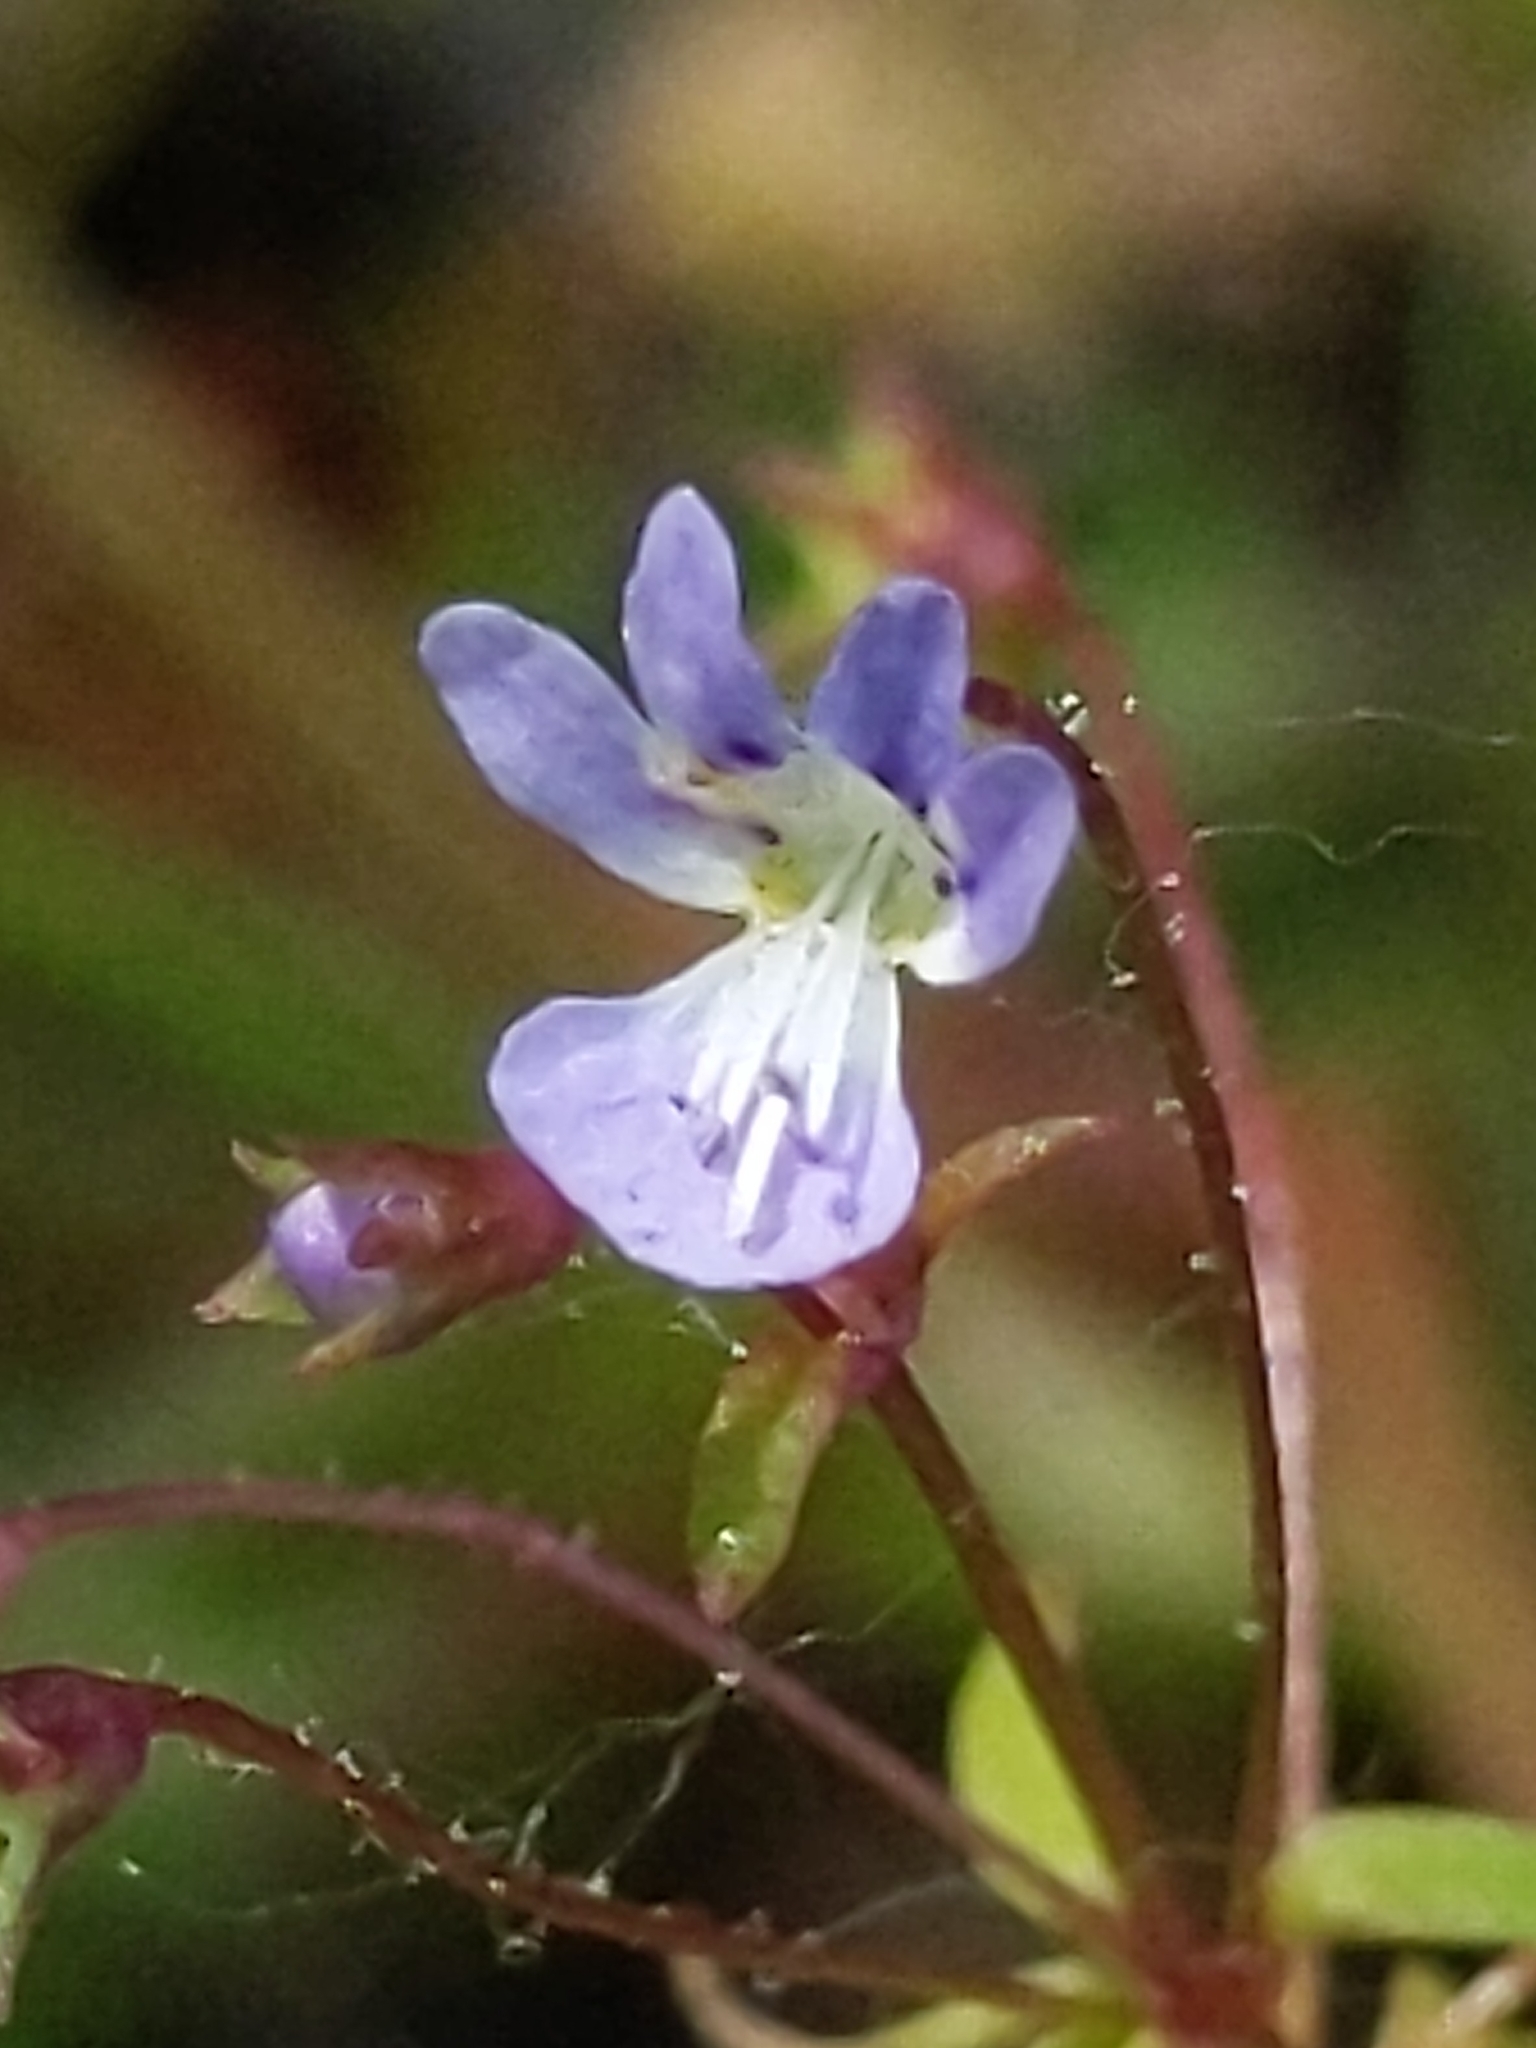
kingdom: Plantae
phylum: Tracheophyta
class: Magnoliopsida
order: Lamiales
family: Plantaginaceae
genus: Tonella
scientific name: Tonella tenella
